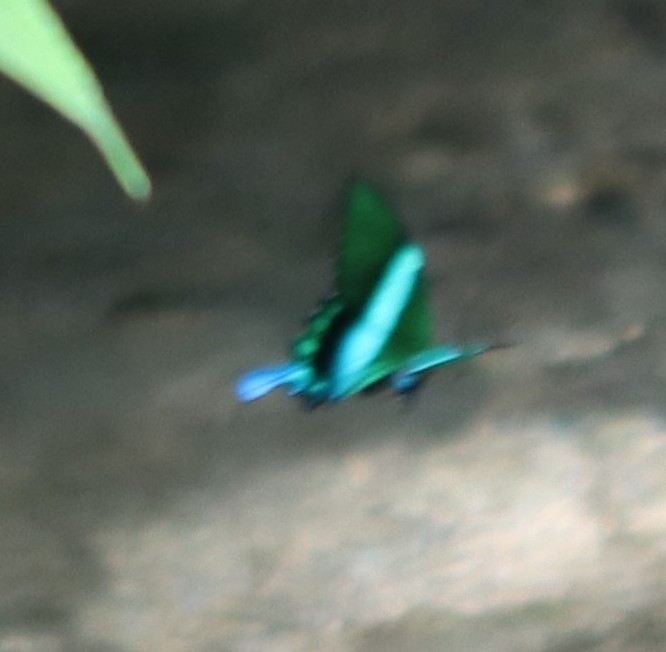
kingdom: Animalia
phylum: Arthropoda
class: Insecta
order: Lepidoptera
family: Papilionidae
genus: Papilio
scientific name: Papilio blumei
